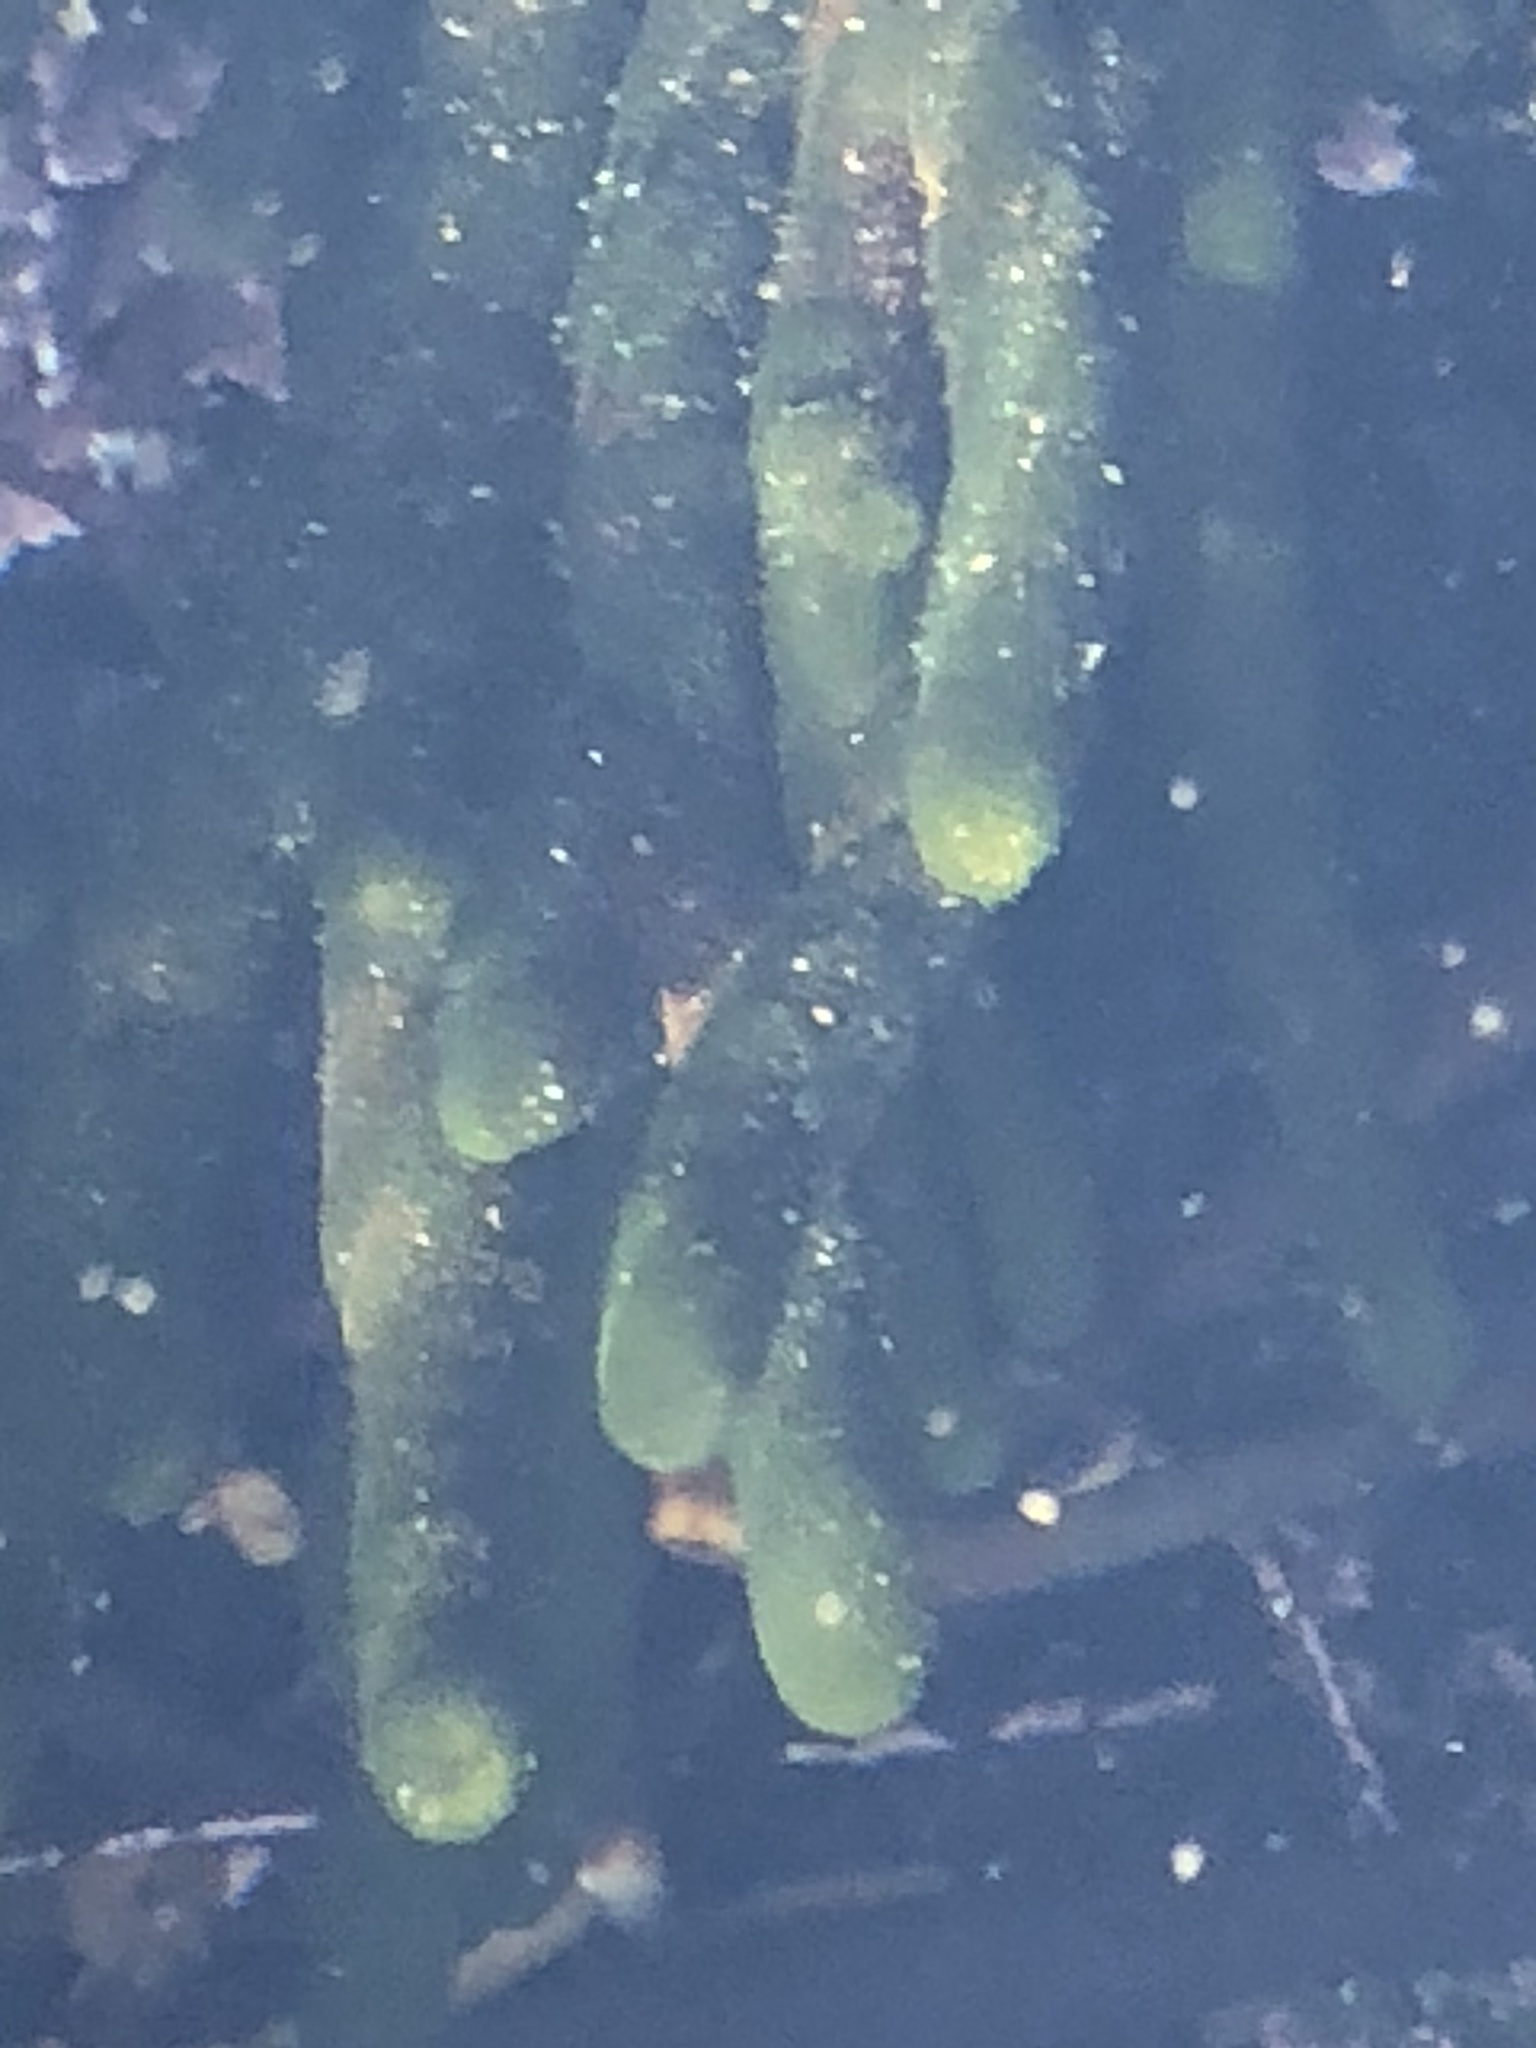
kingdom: Plantae
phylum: Chlorophyta
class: Ulvophyceae
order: Bryopsidales
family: Codiaceae
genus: Codium
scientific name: Codium fragile
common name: Dead man's fingers
